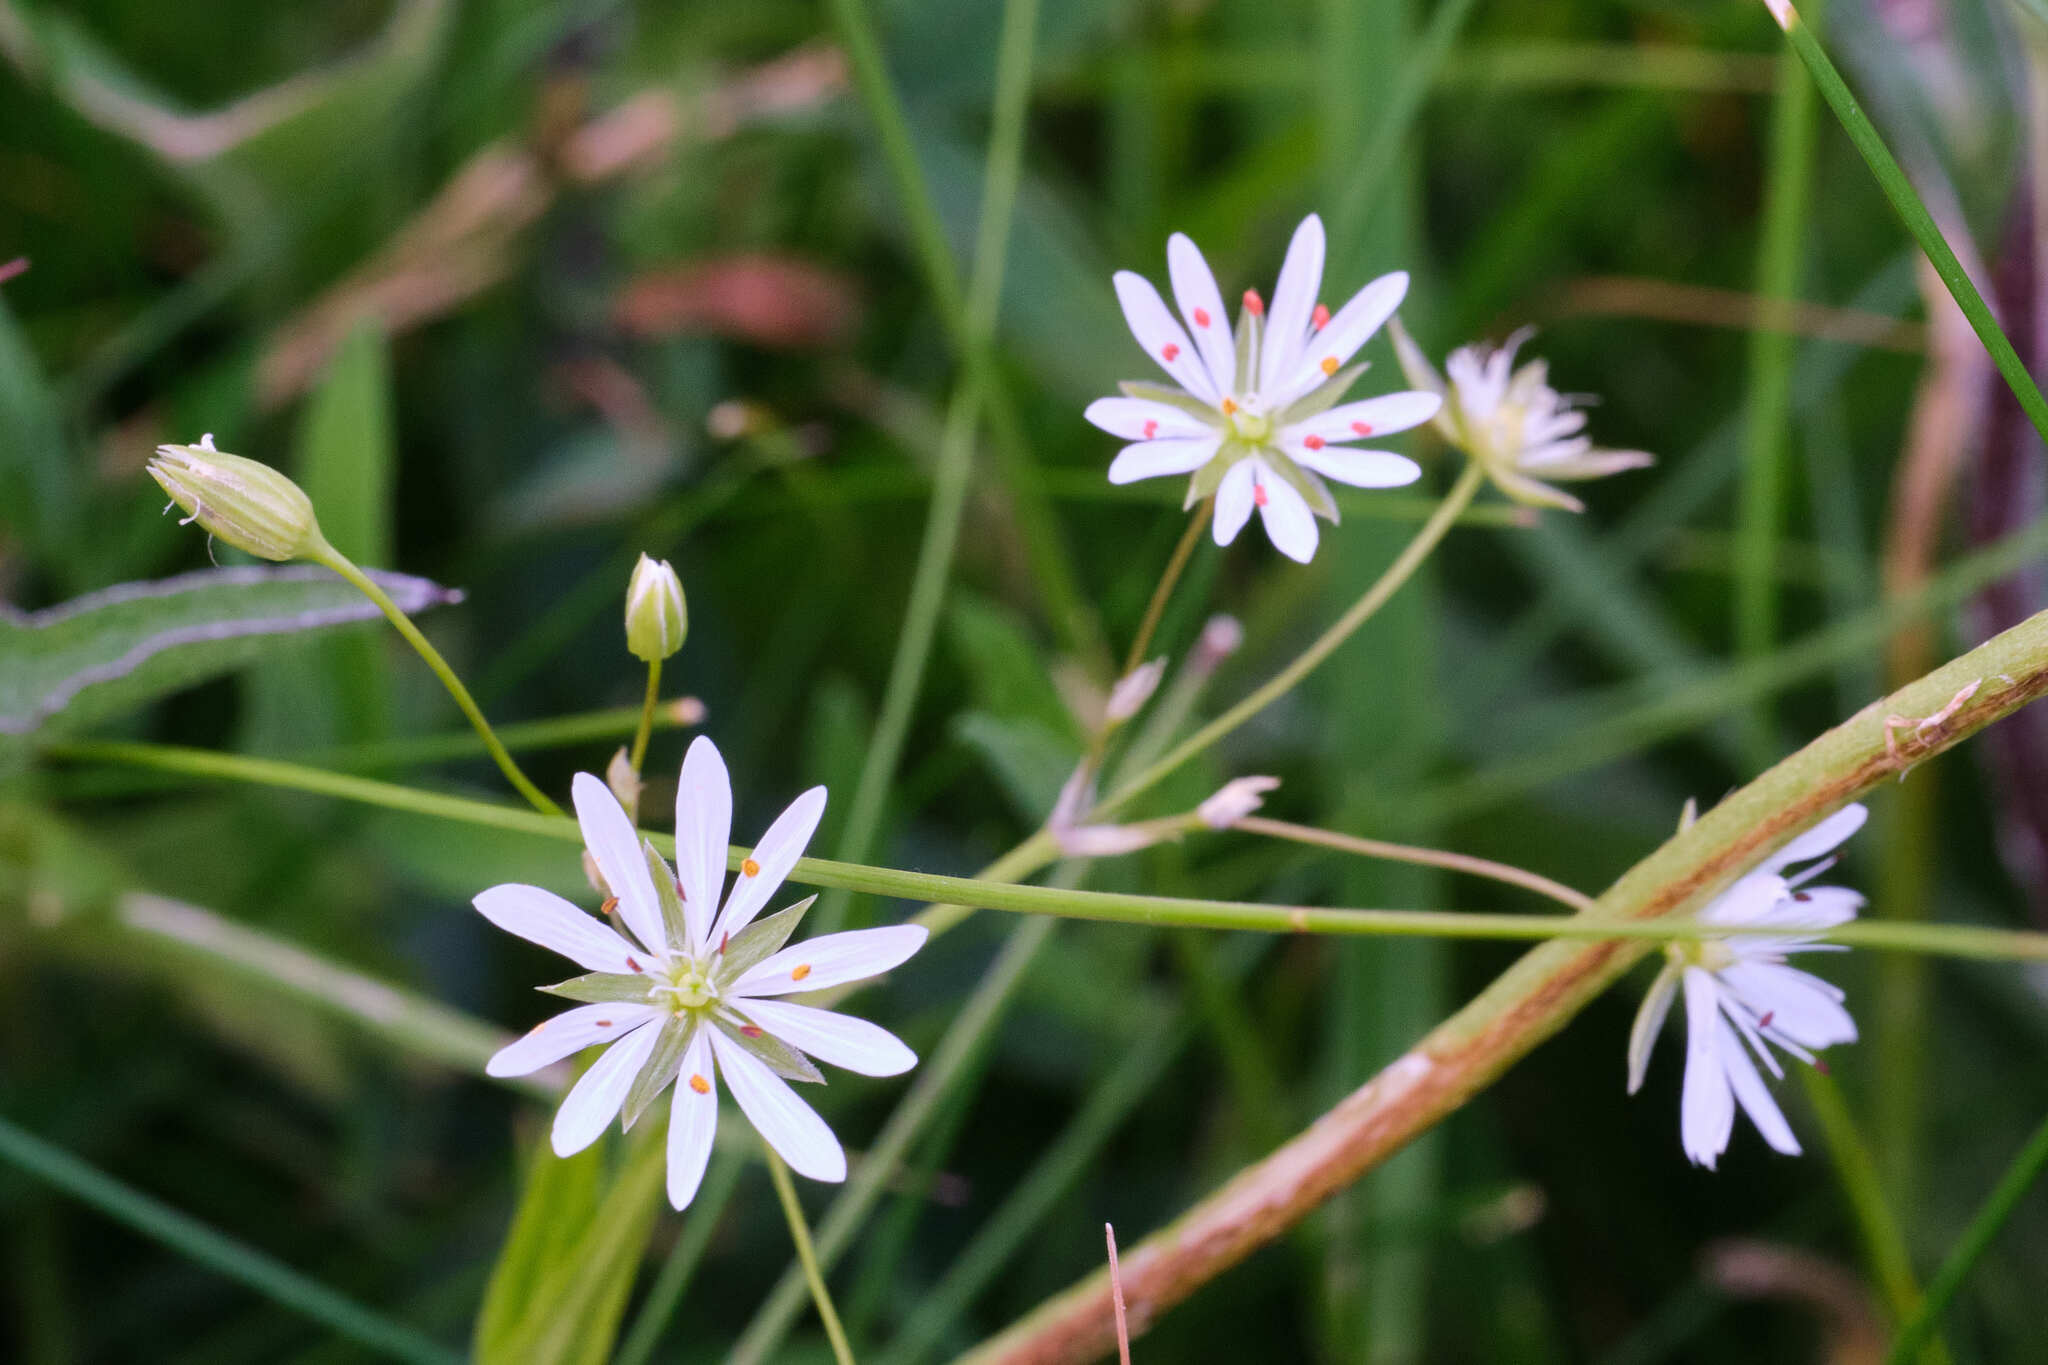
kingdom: Plantae
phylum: Tracheophyta
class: Magnoliopsida
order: Caryophyllales
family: Caryophyllaceae
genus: Stellaria
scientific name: Stellaria graminea
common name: Grass-like starwort
